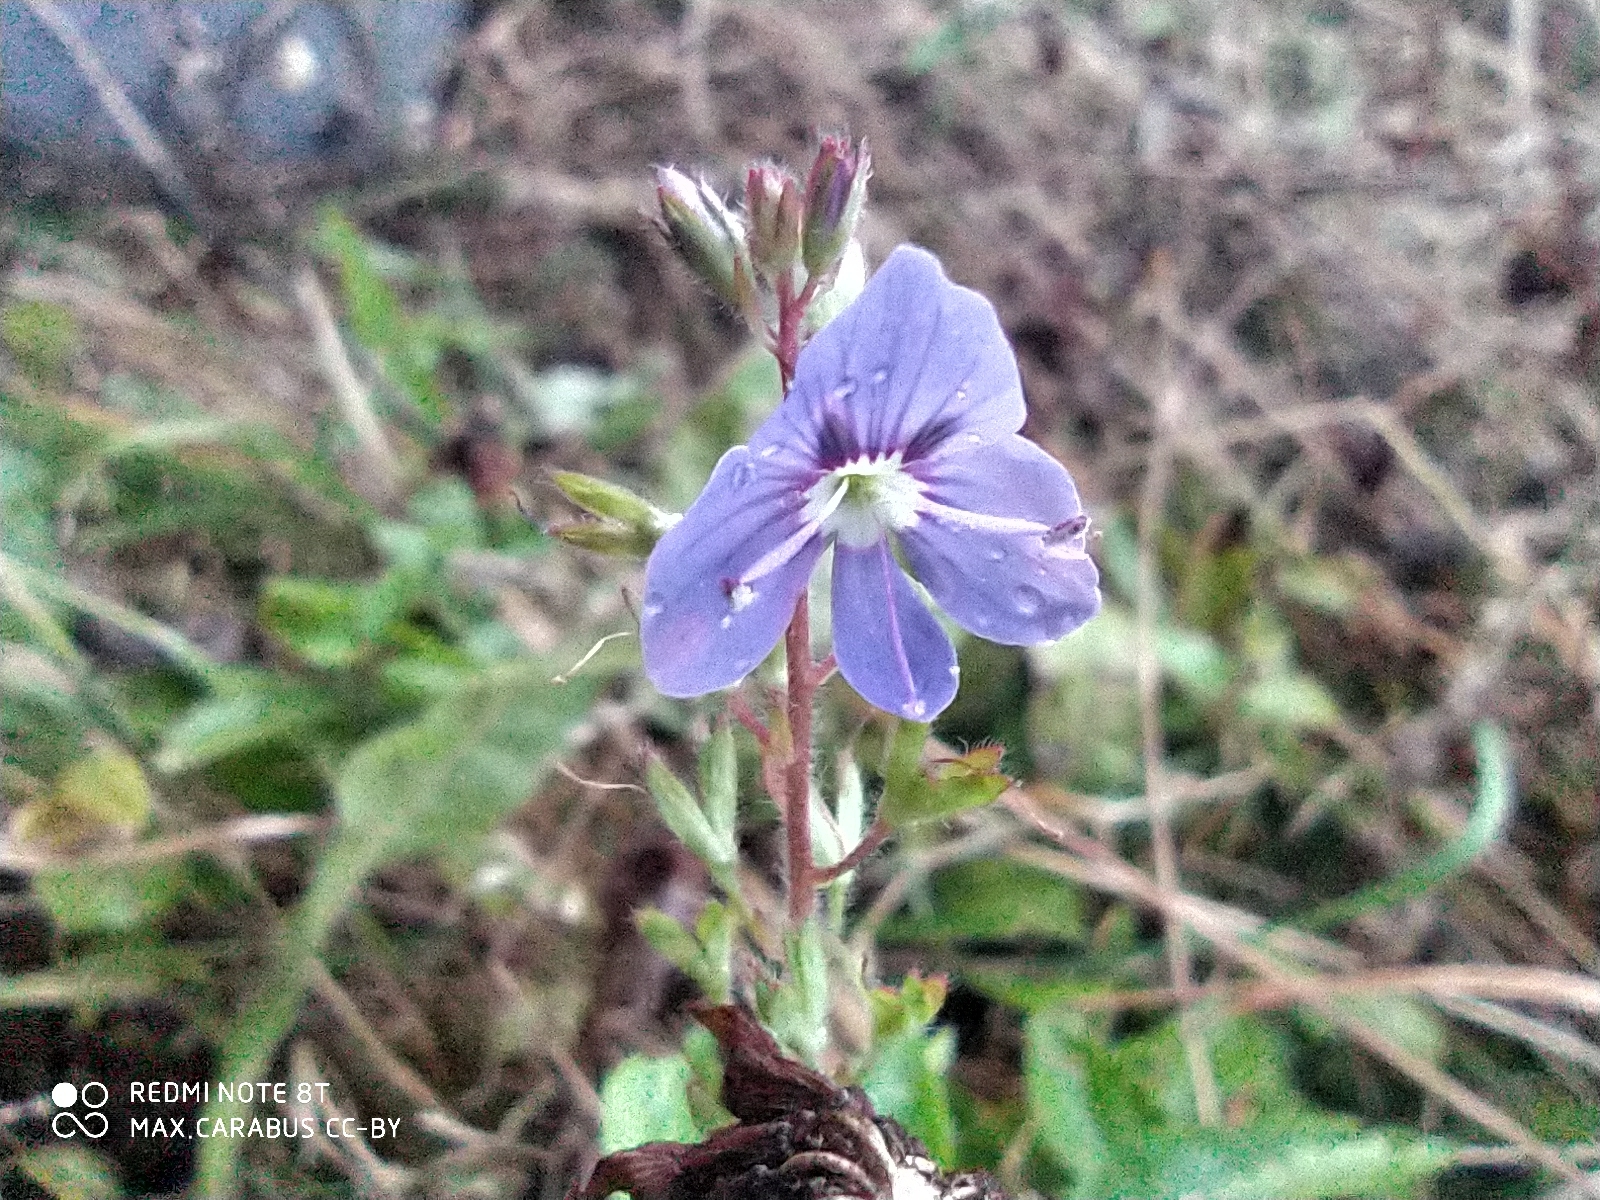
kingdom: Plantae
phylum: Tracheophyta
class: Magnoliopsida
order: Lamiales
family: Plantaginaceae
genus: Veronica
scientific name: Veronica chamaedrys
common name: Germander speedwell
